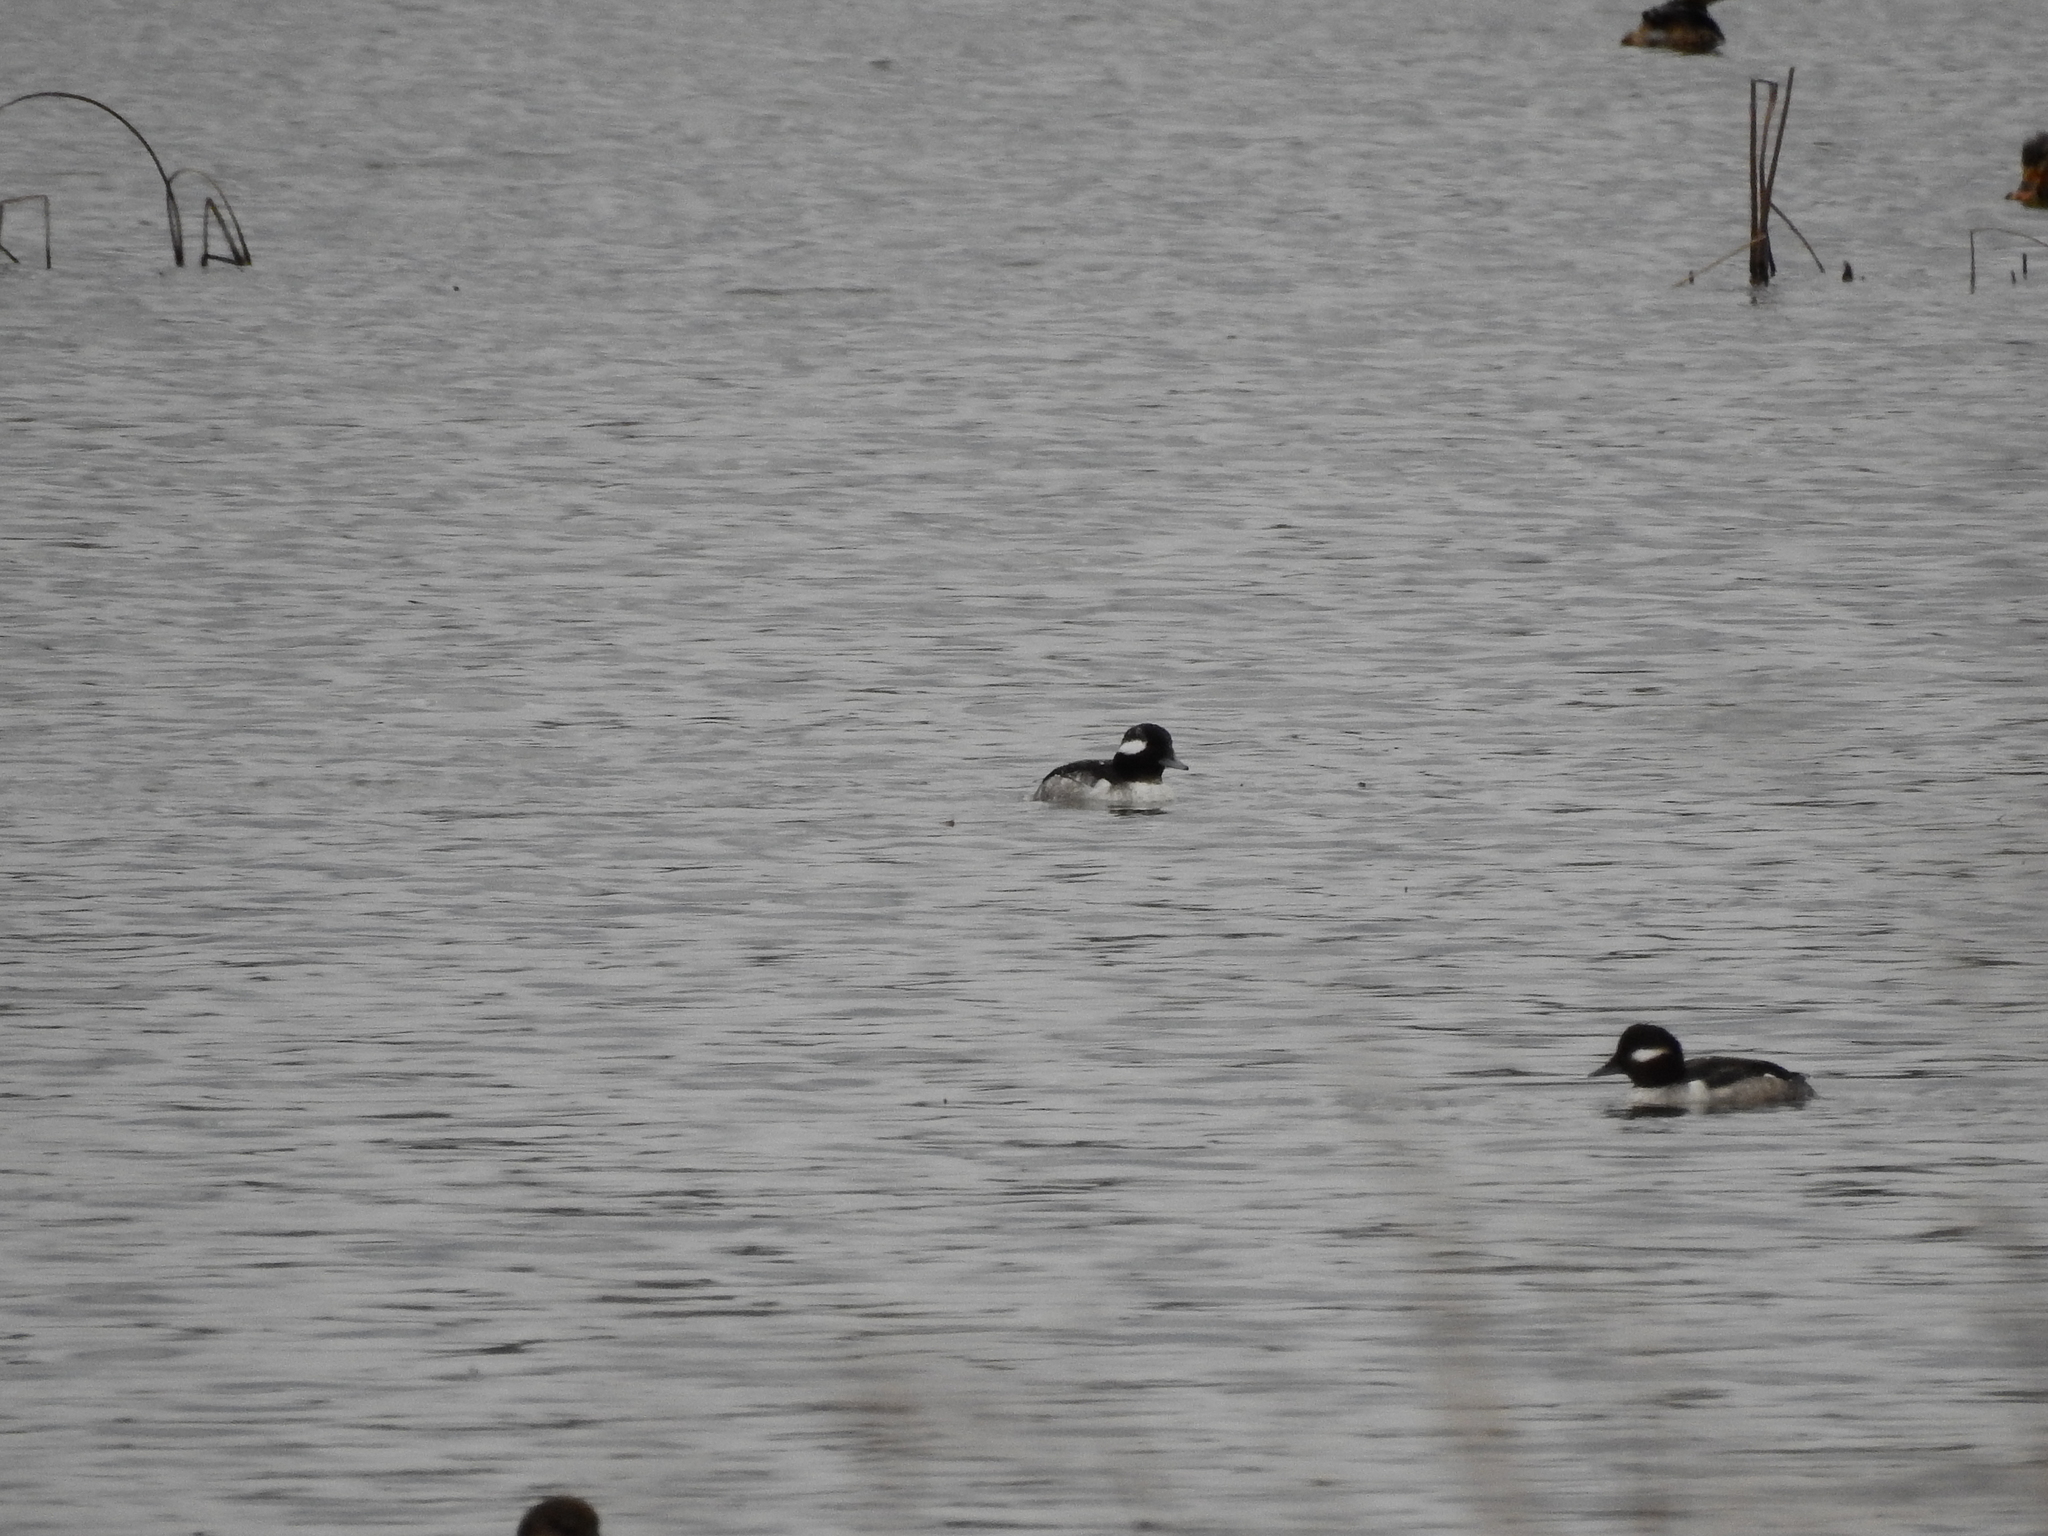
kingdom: Animalia
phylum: Chordata
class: Aves
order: Anseriformes
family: Anatidae
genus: Bucephala
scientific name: Bucephala albeola
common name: Bufflehead
